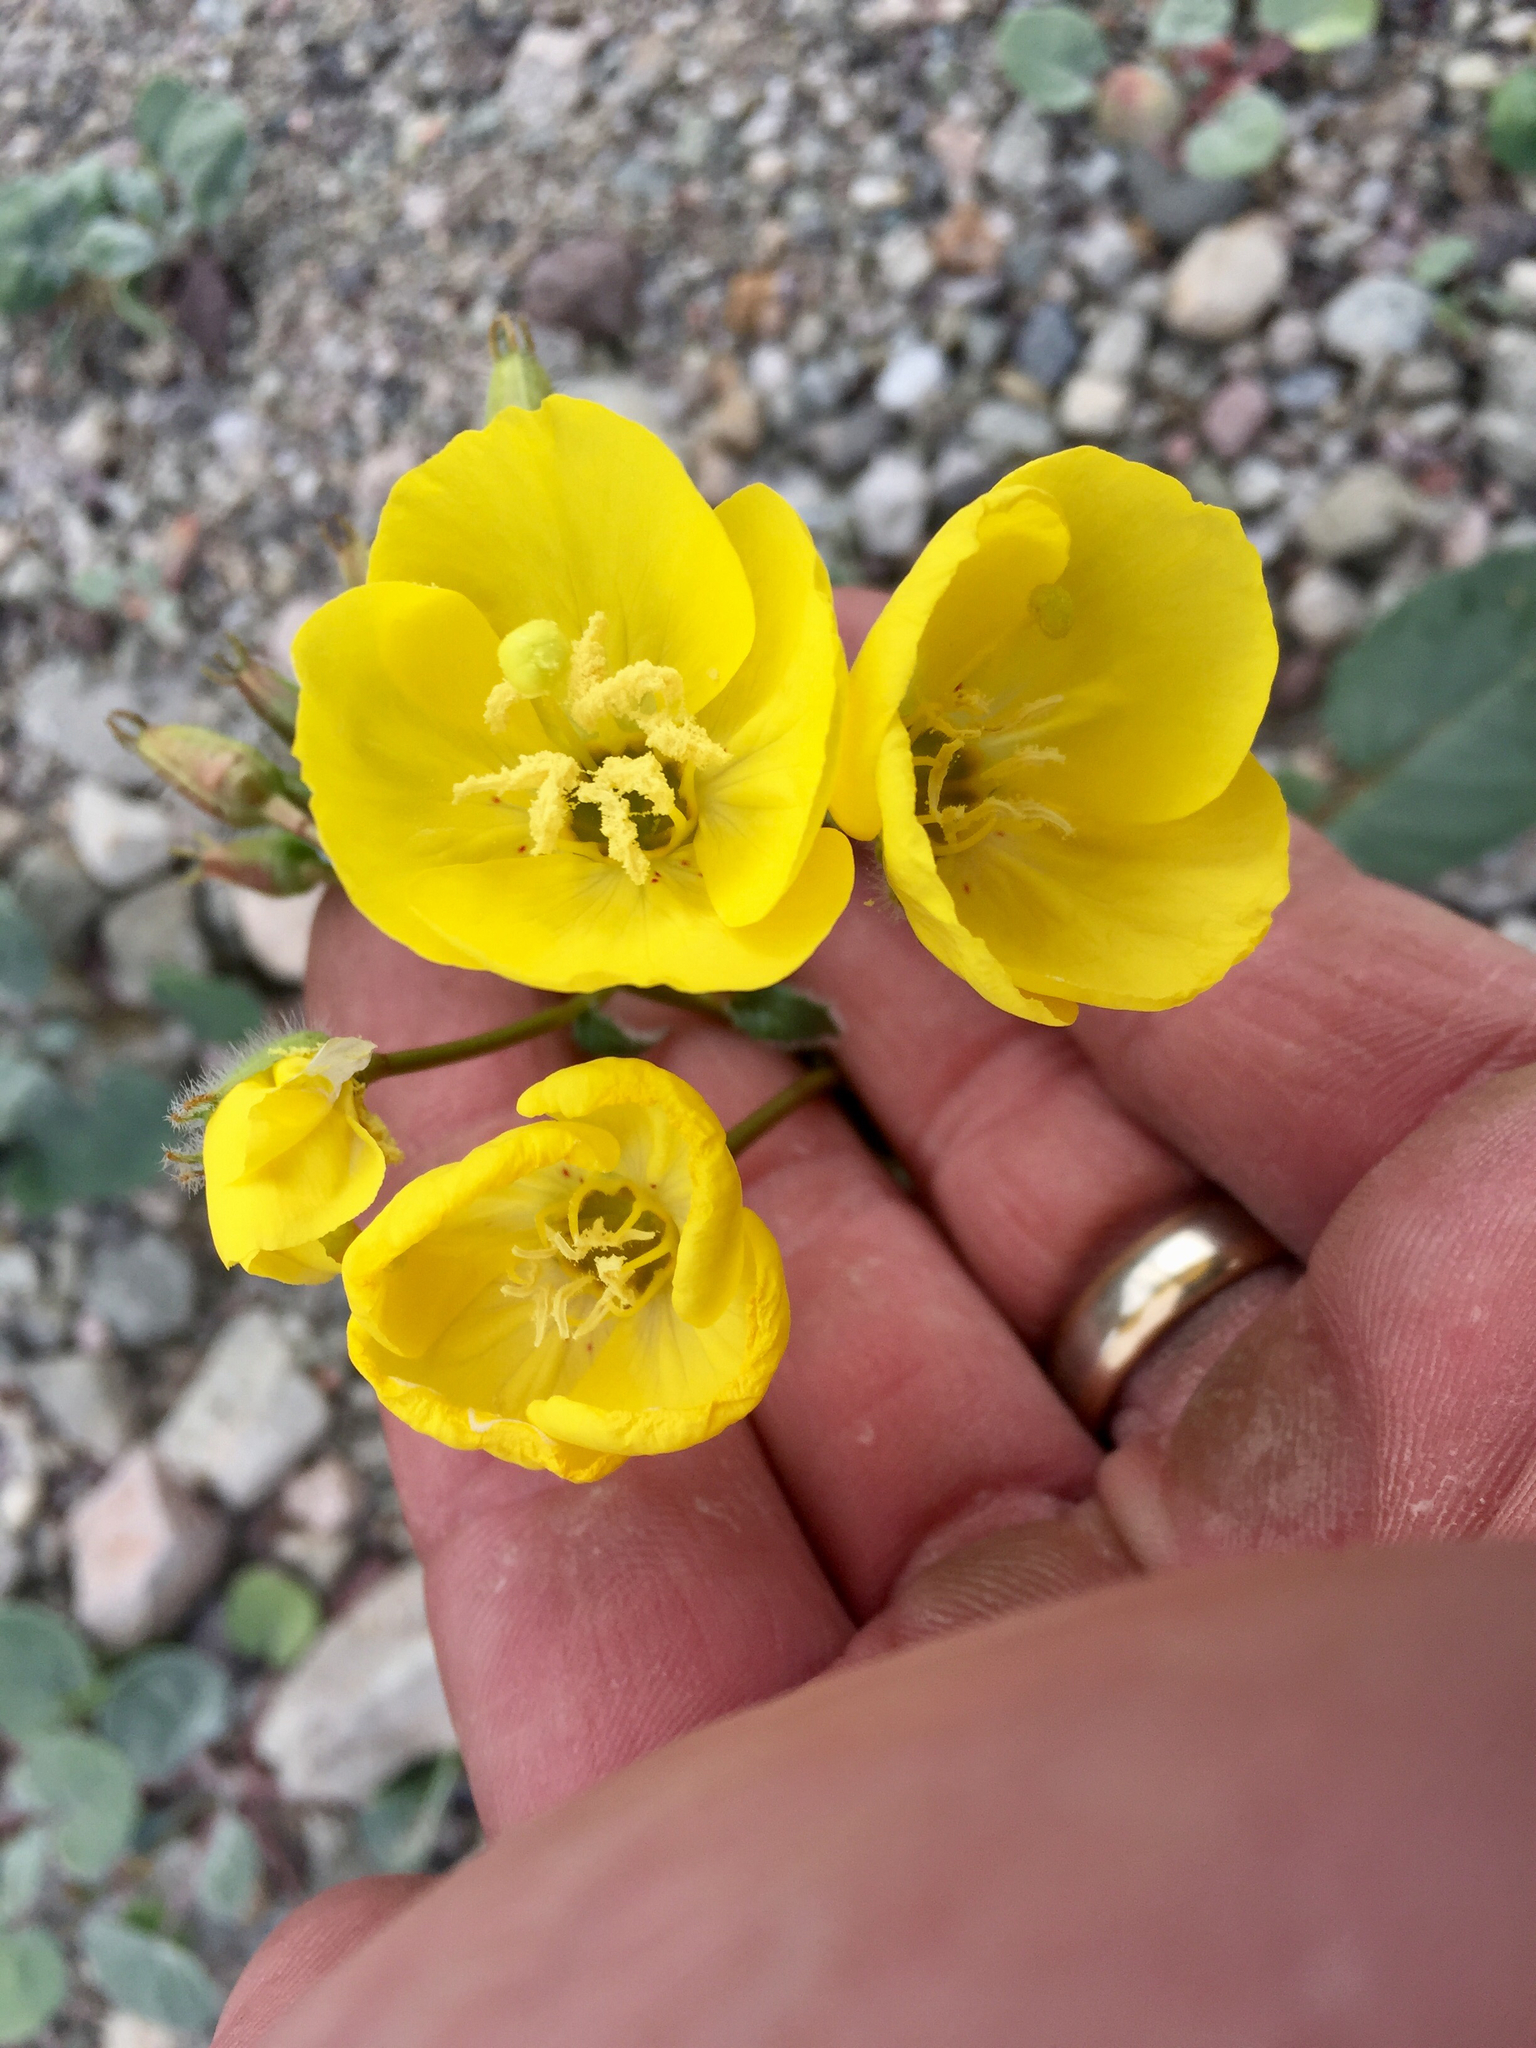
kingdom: Plantae
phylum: Tracheophyta
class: Magnoliopsida
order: Myrtales
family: Onagraceae
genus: Chylismia
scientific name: Chylismia brevipes
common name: Yellow cups
